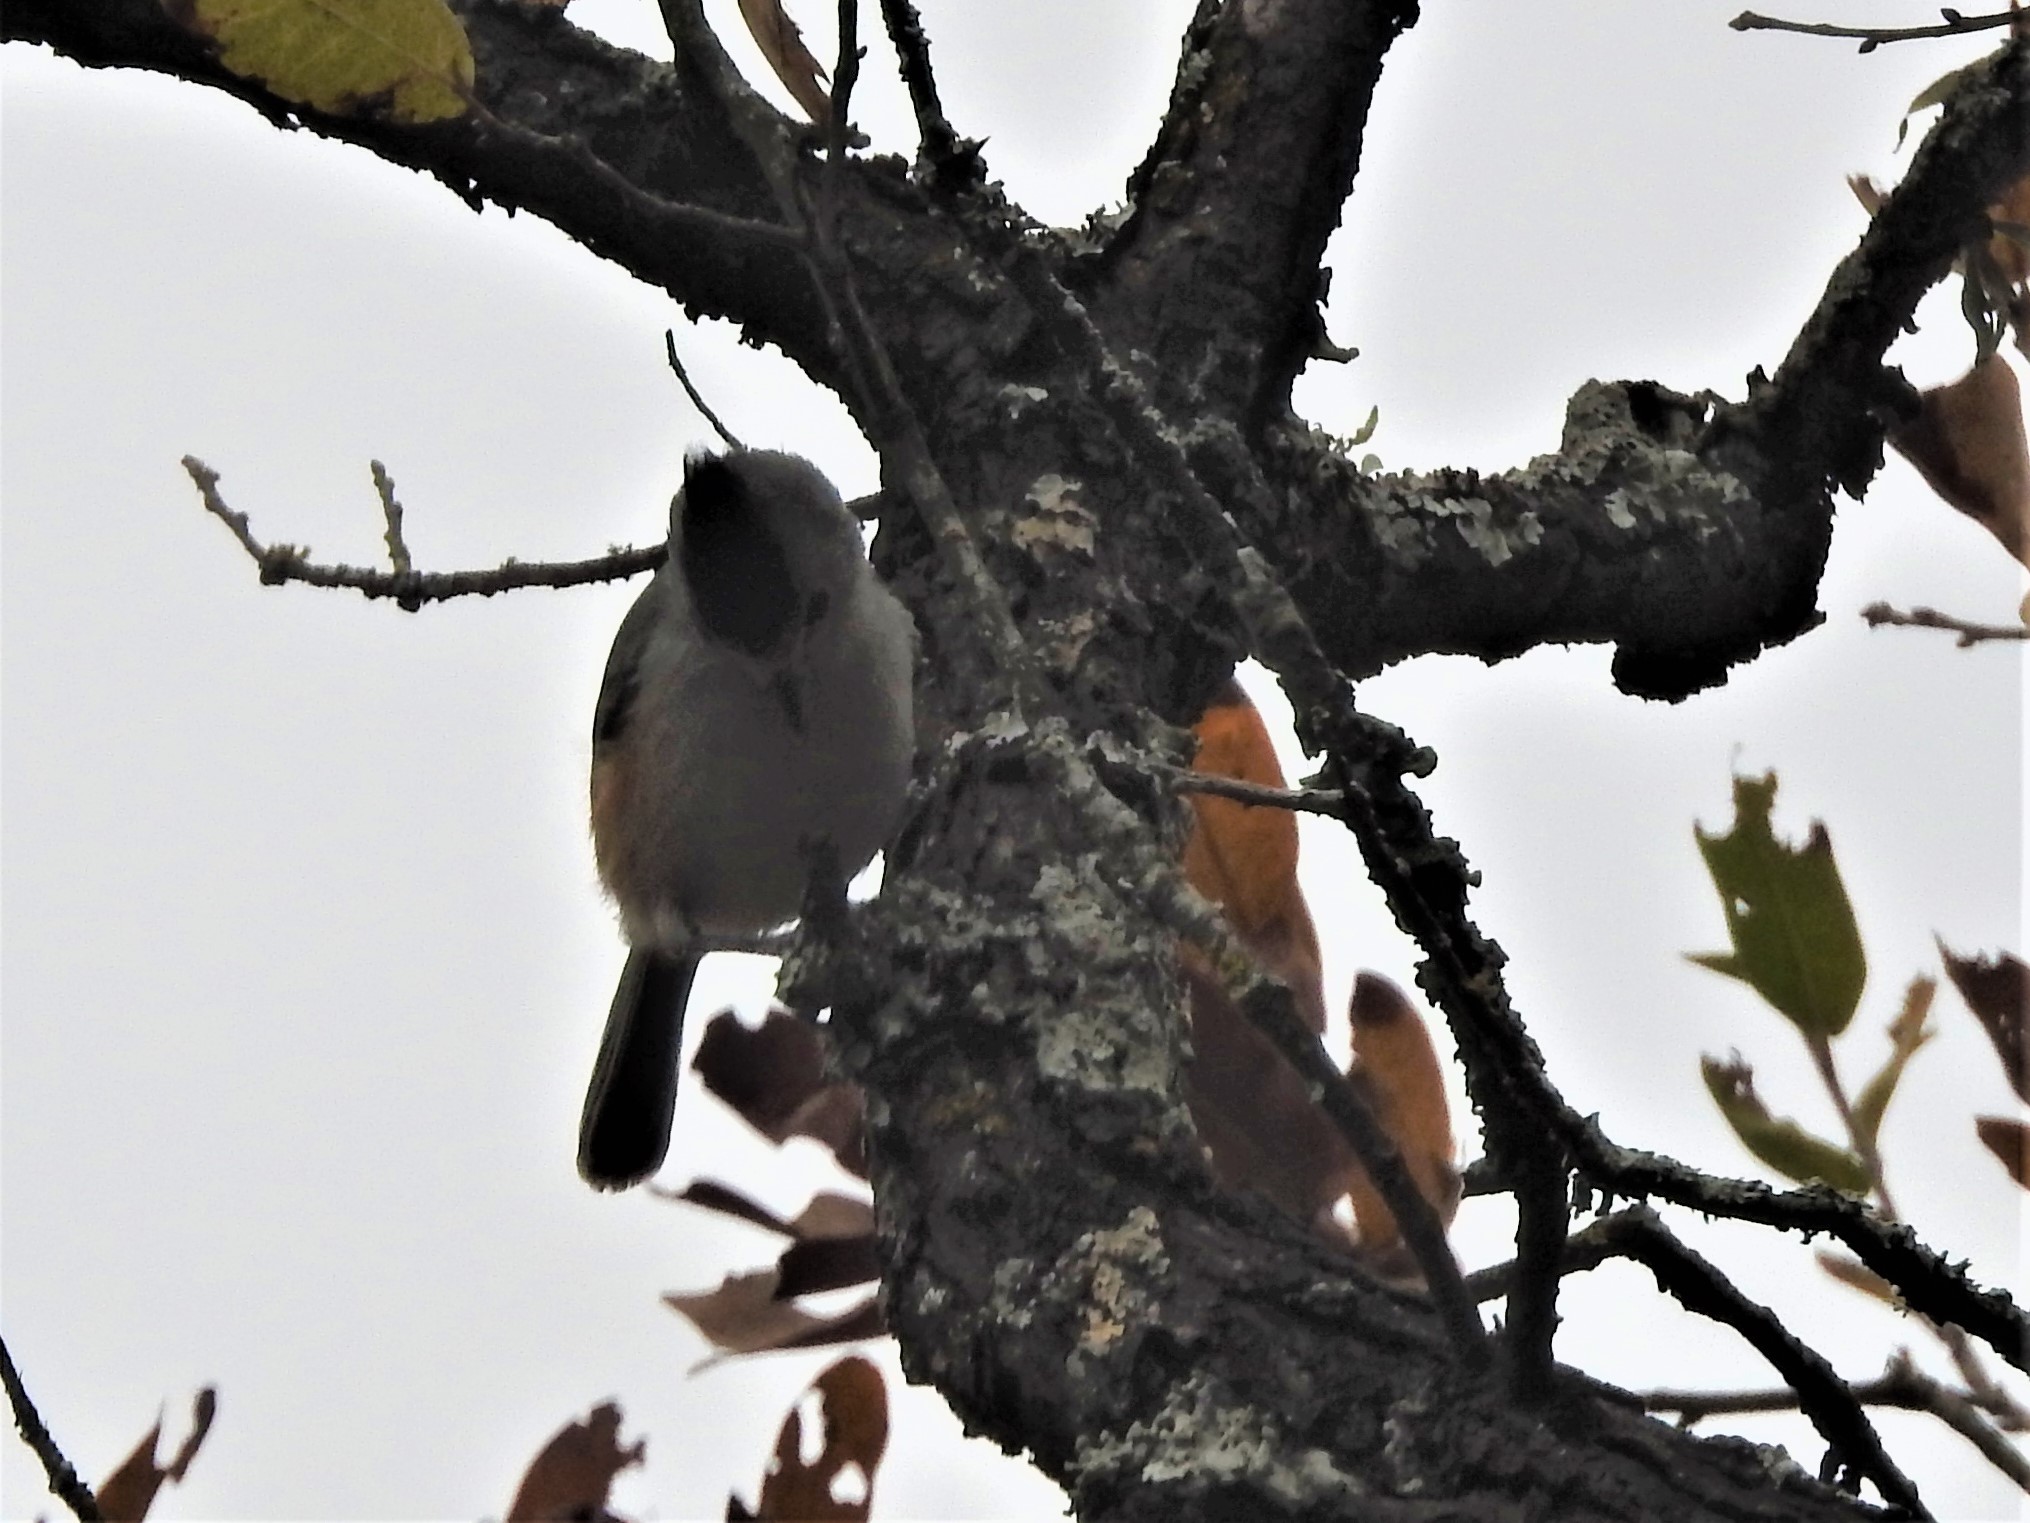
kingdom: Animalia
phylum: Chordata
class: Aves
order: Passeriformes
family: Paridae
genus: Baeolophus
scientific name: Baeolophus atricristatus
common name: Black-crested titmouse
